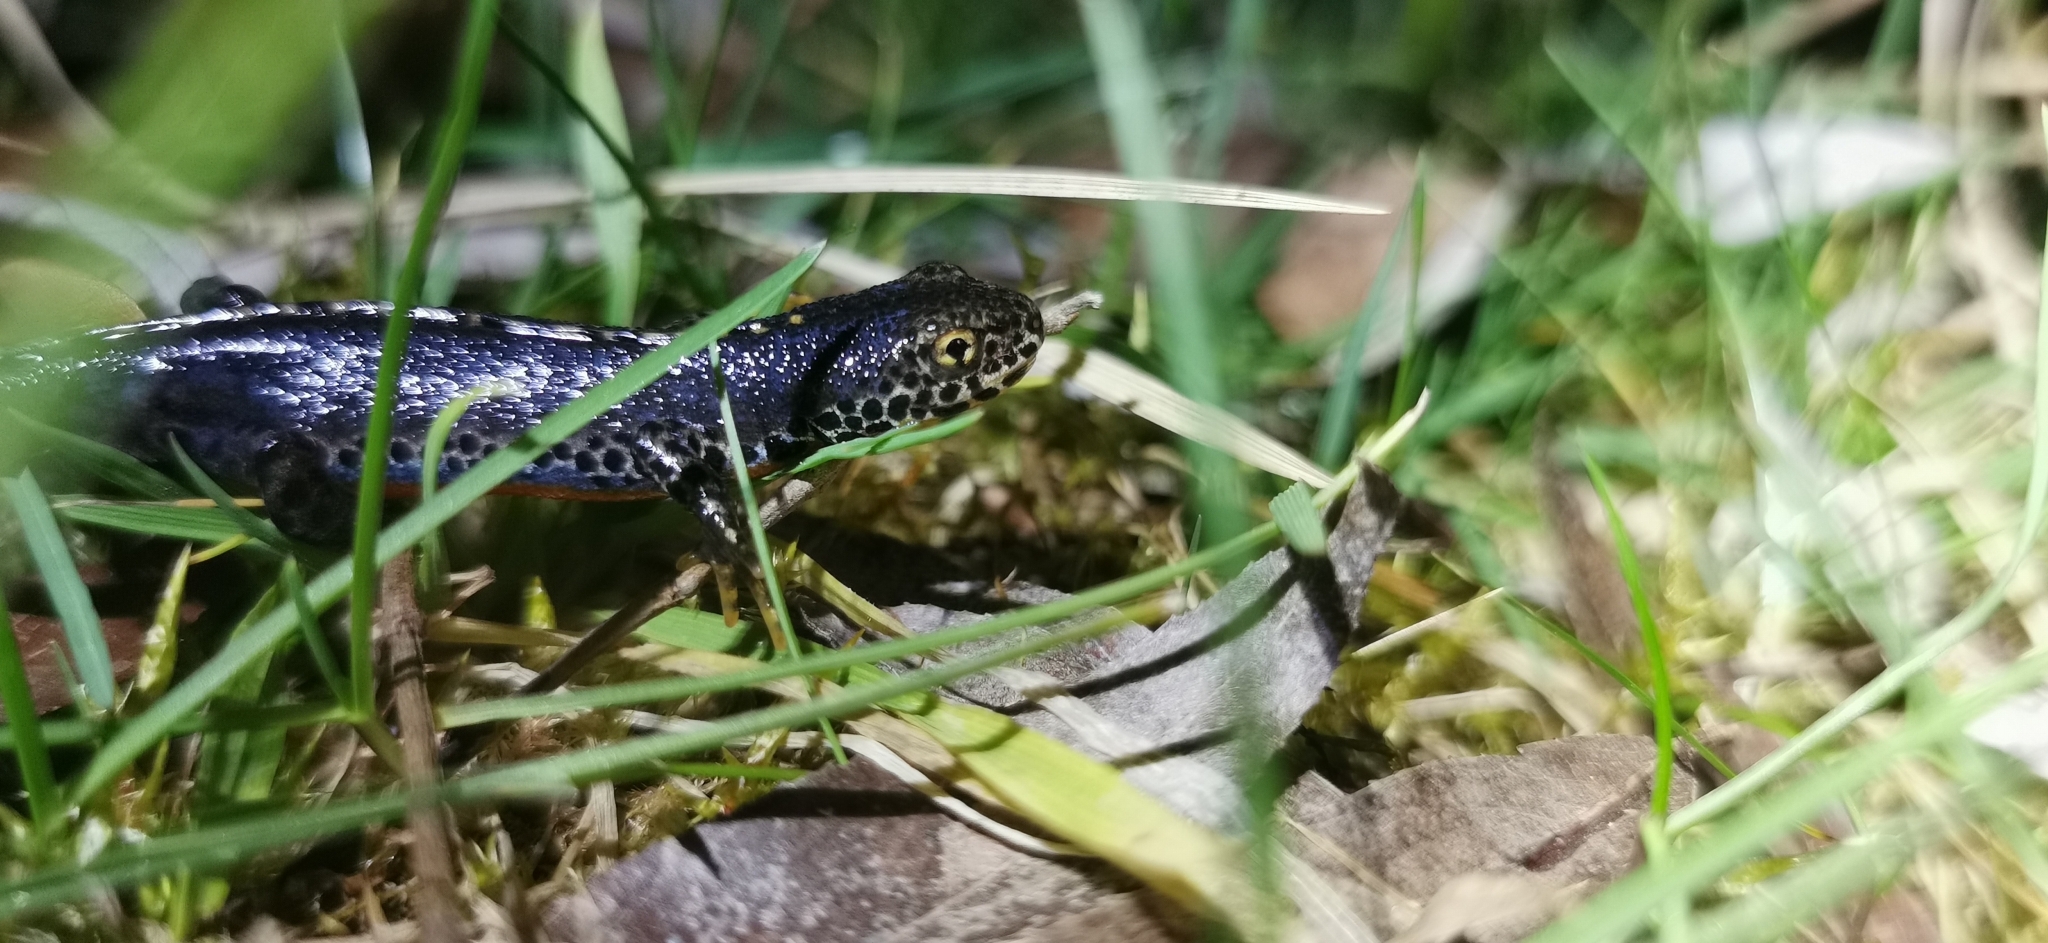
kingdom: Animalia
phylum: Chordata
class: Amphibia
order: Caudata
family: Salamandridae
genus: Ichthyosaura
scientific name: Ichthyosaura alpestris
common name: Alpine newt
